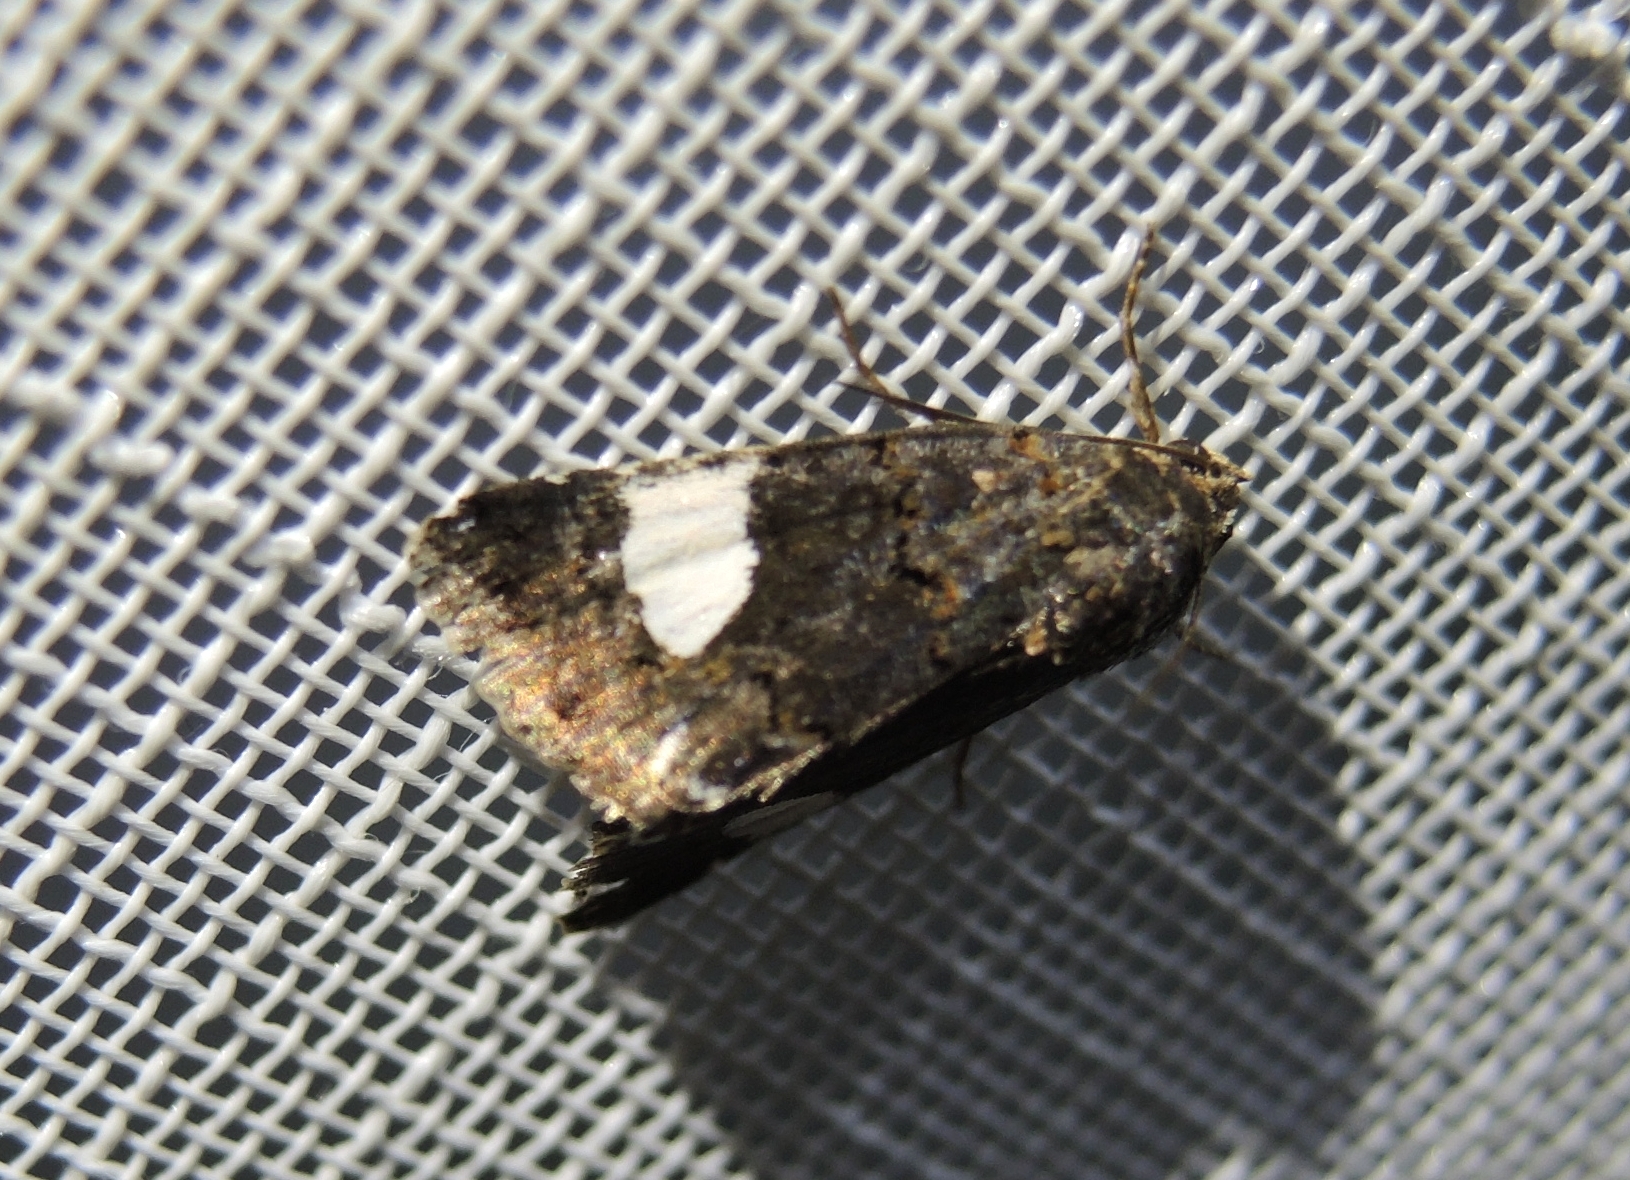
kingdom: Animalia
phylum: Arthropoda
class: Insecta
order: Lepidoptera
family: Erebidae
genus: Tyta
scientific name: Tyta luctuosa
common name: Four-spotted
